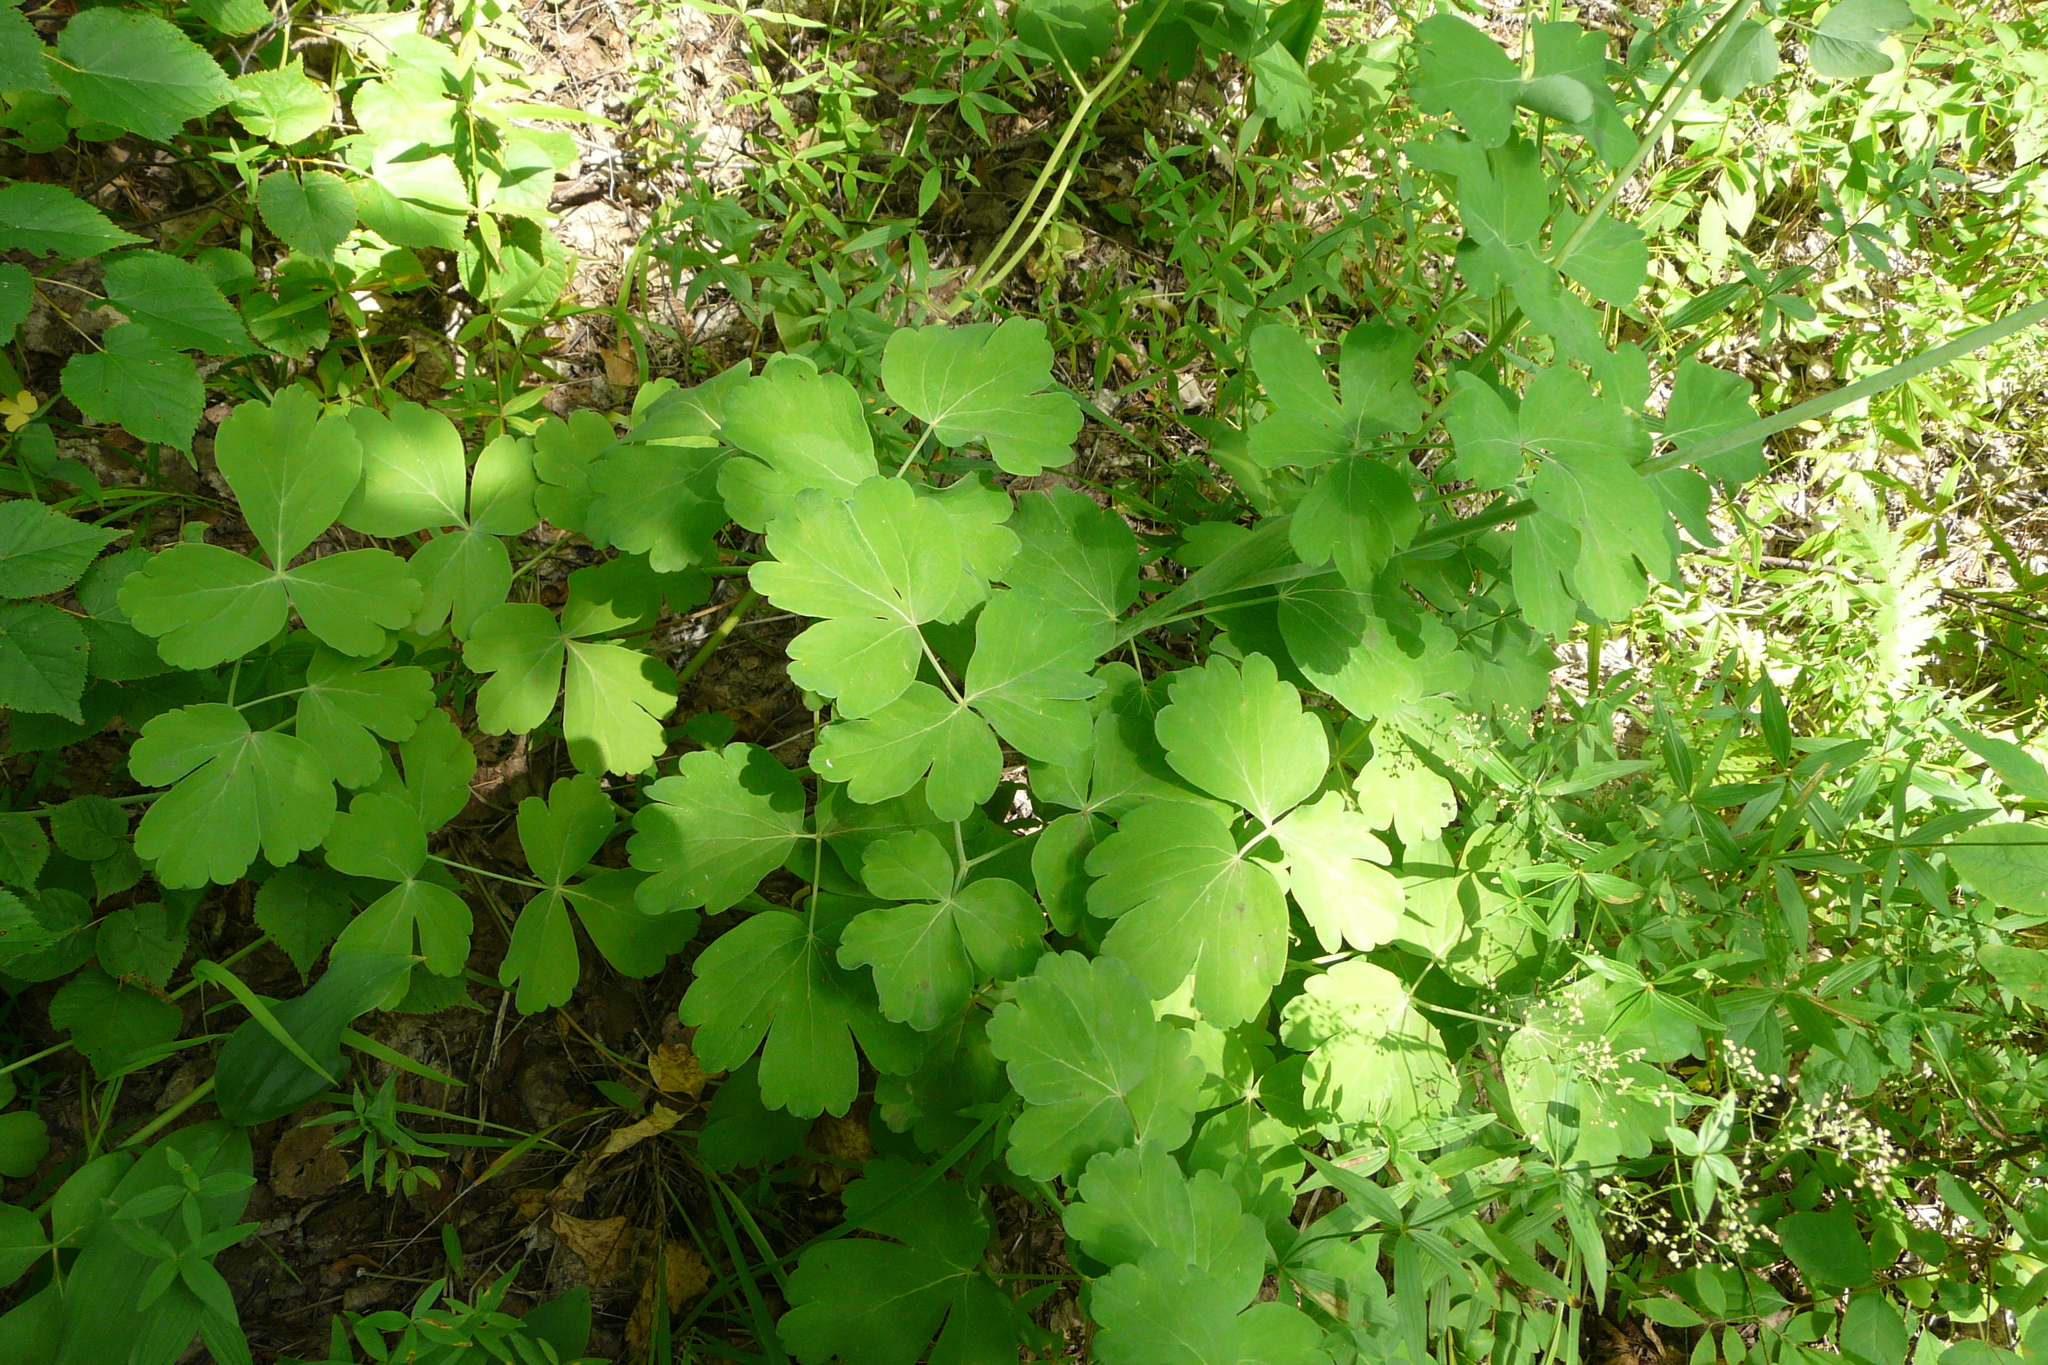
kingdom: Plantae
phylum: Tracheophyta
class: Magnoliopsida
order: Apiales
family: Apiaceae
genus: Laser
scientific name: Laser trilobum
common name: Laser
